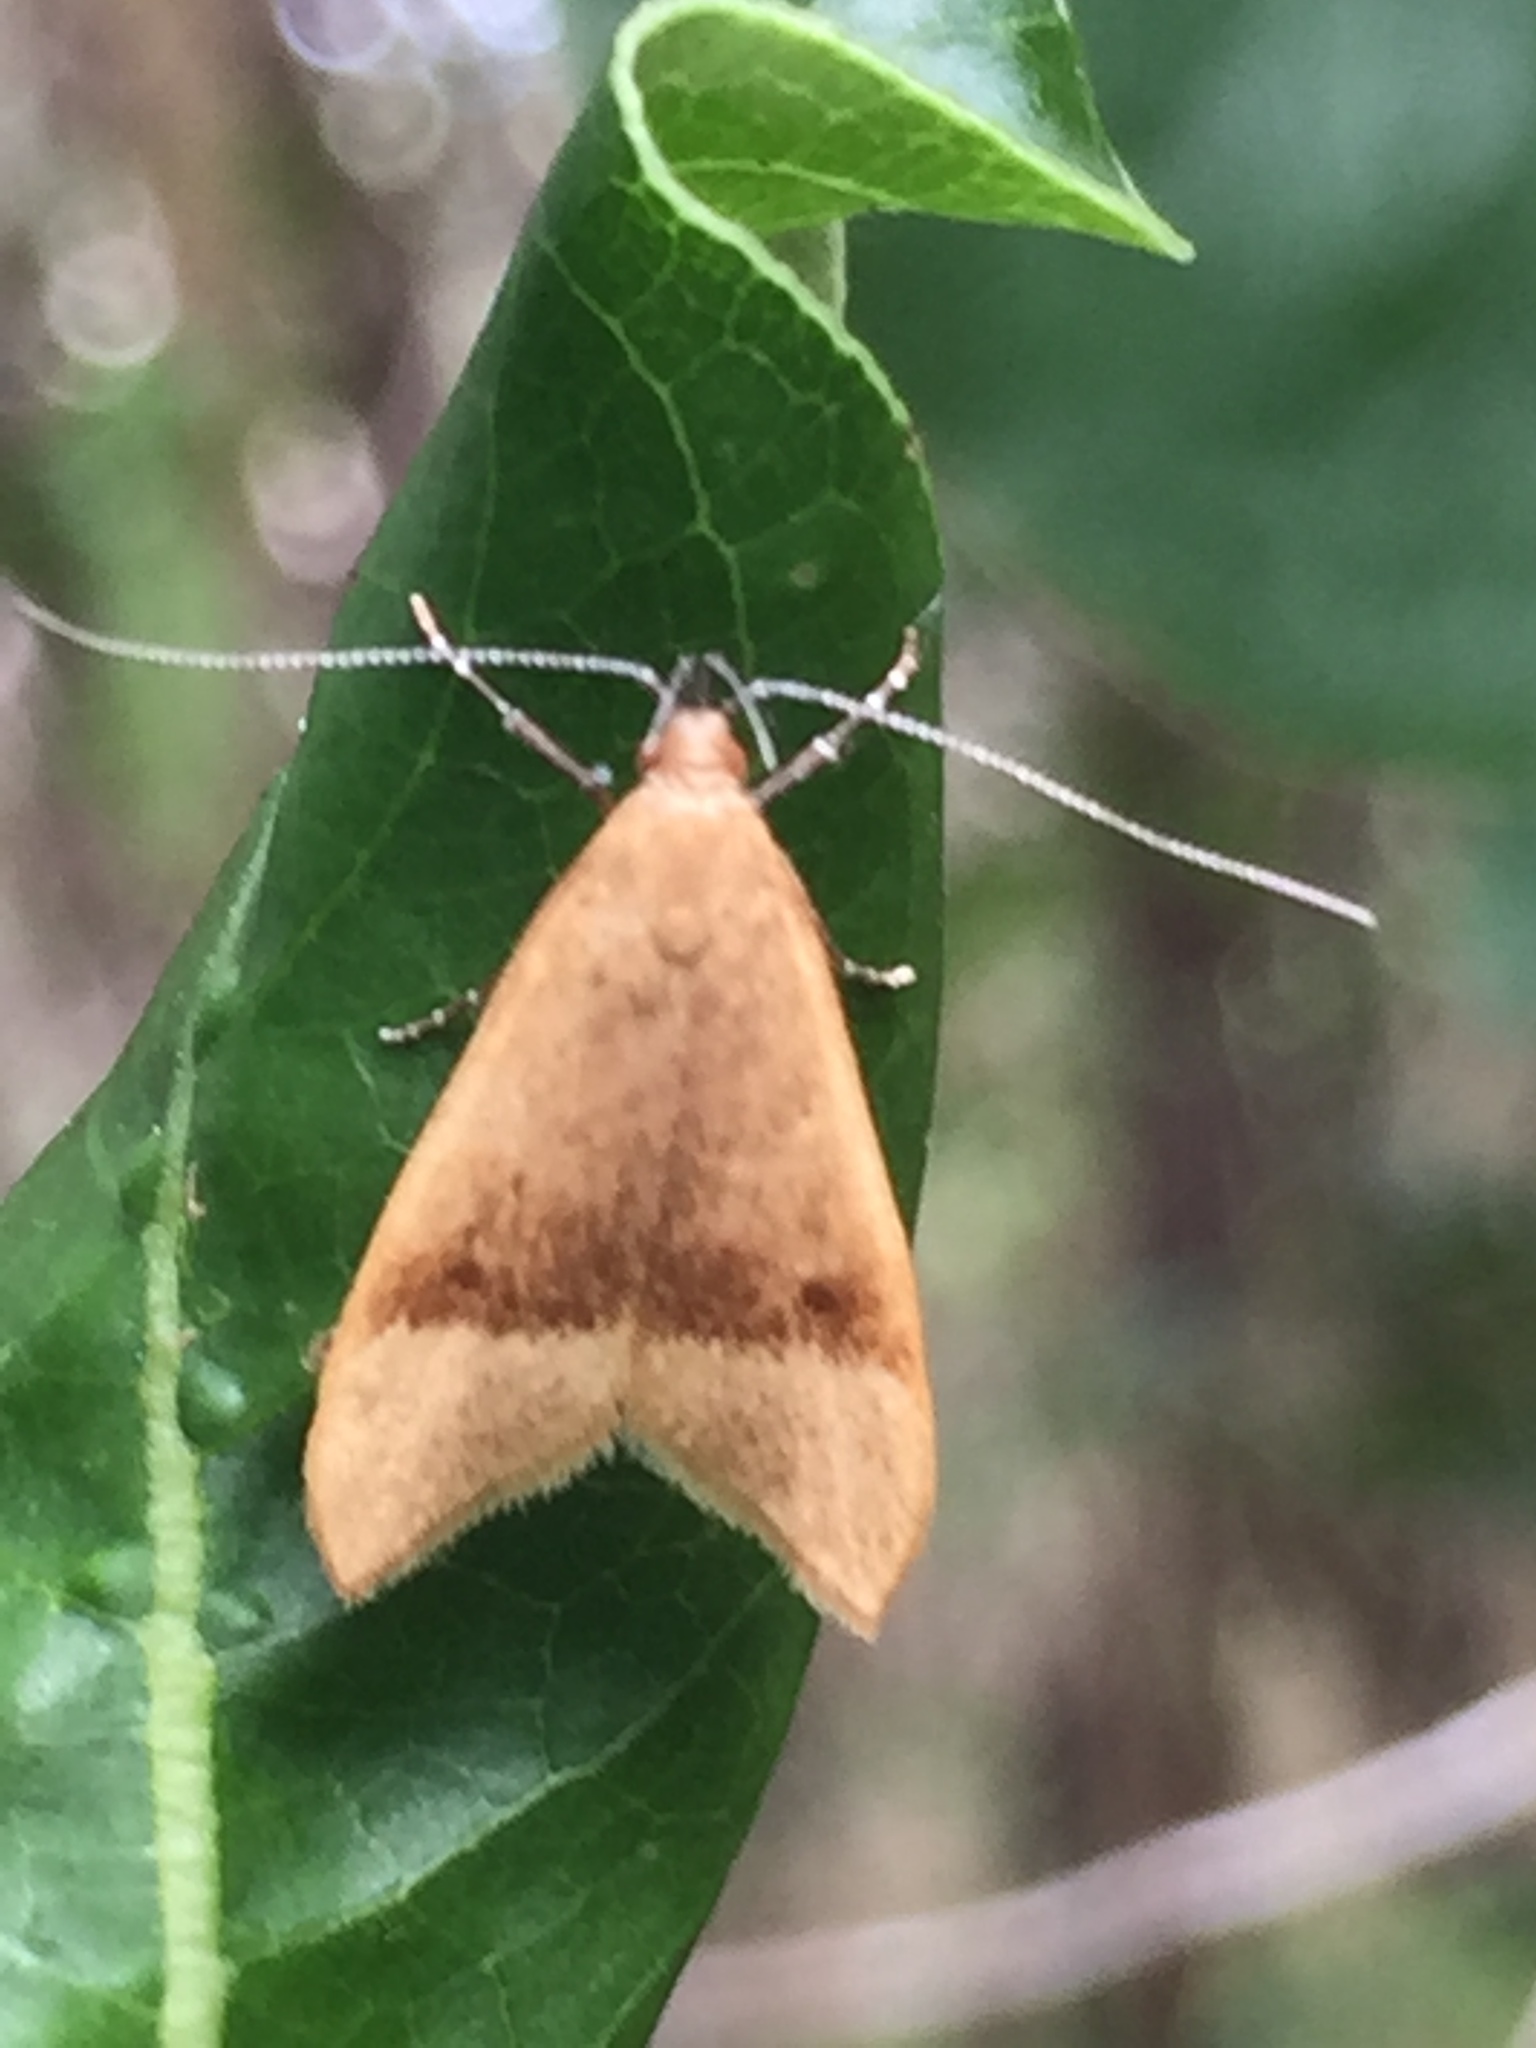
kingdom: Animalia
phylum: Arthropoda
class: Insecta
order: Lepidoptera
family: Oecophoridae
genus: Gymnobathra
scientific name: Gymnobathra hyetodes
